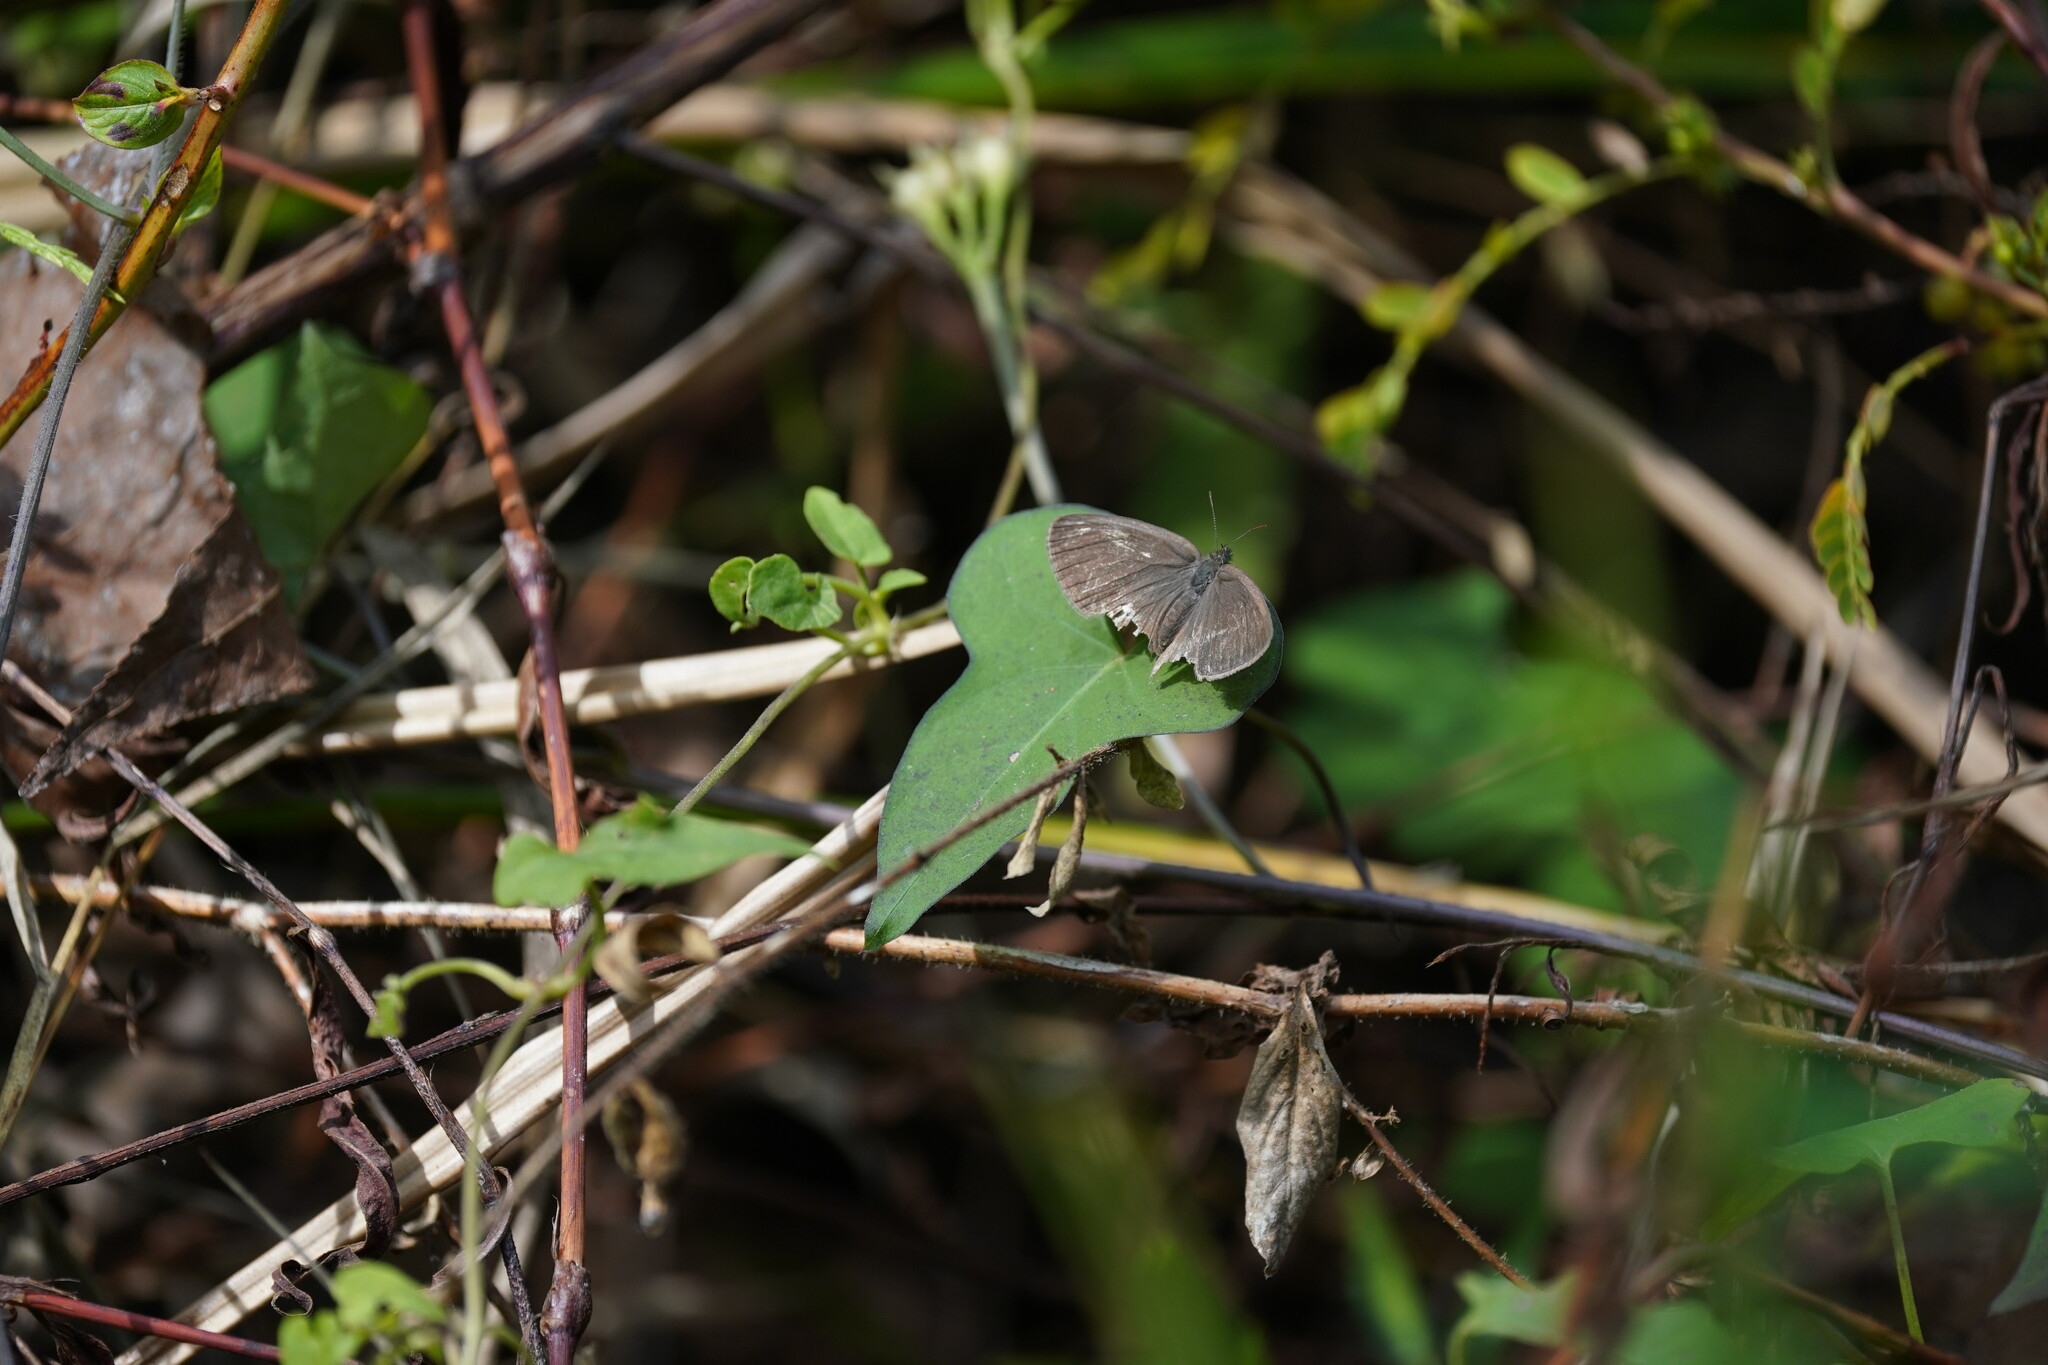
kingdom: Animalia
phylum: Arthropoda
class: Insecta
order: Lepidoptera
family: Nymphalidae
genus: Hermeuptychia
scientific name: Hermeuptychia hermes
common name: Hermes satyr
